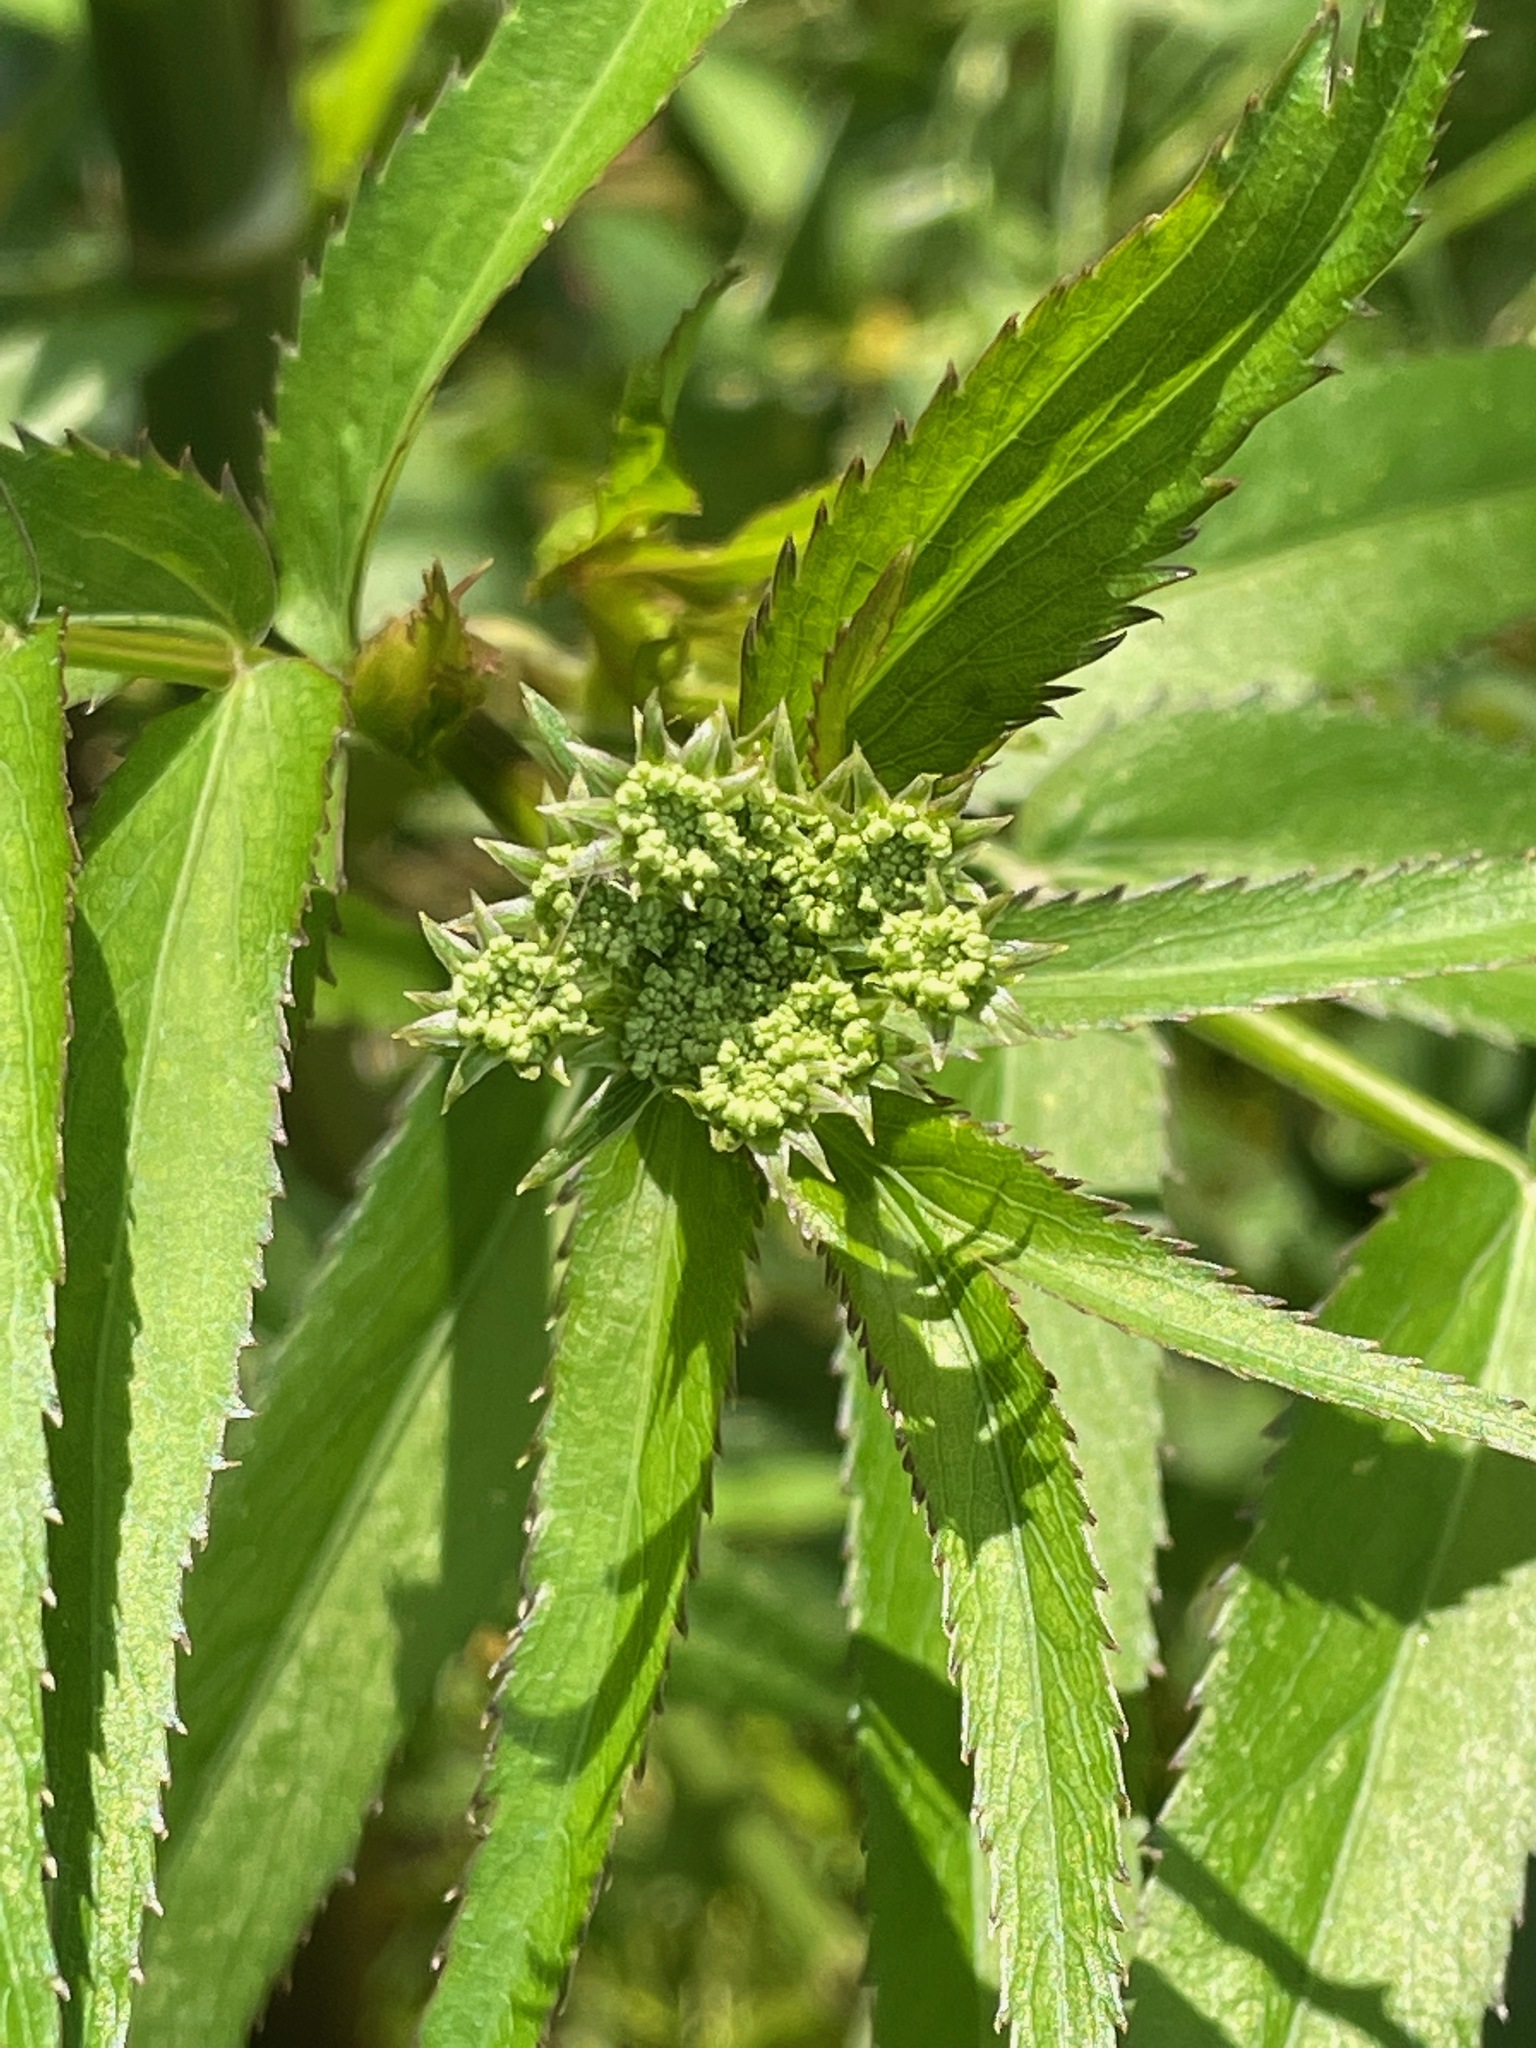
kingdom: Plantae
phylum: Tracheophyta
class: Magnoliopsida
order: Apiales
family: Apiaceae
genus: Sium
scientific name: Sium suave
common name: Hemlock water-parsnip
